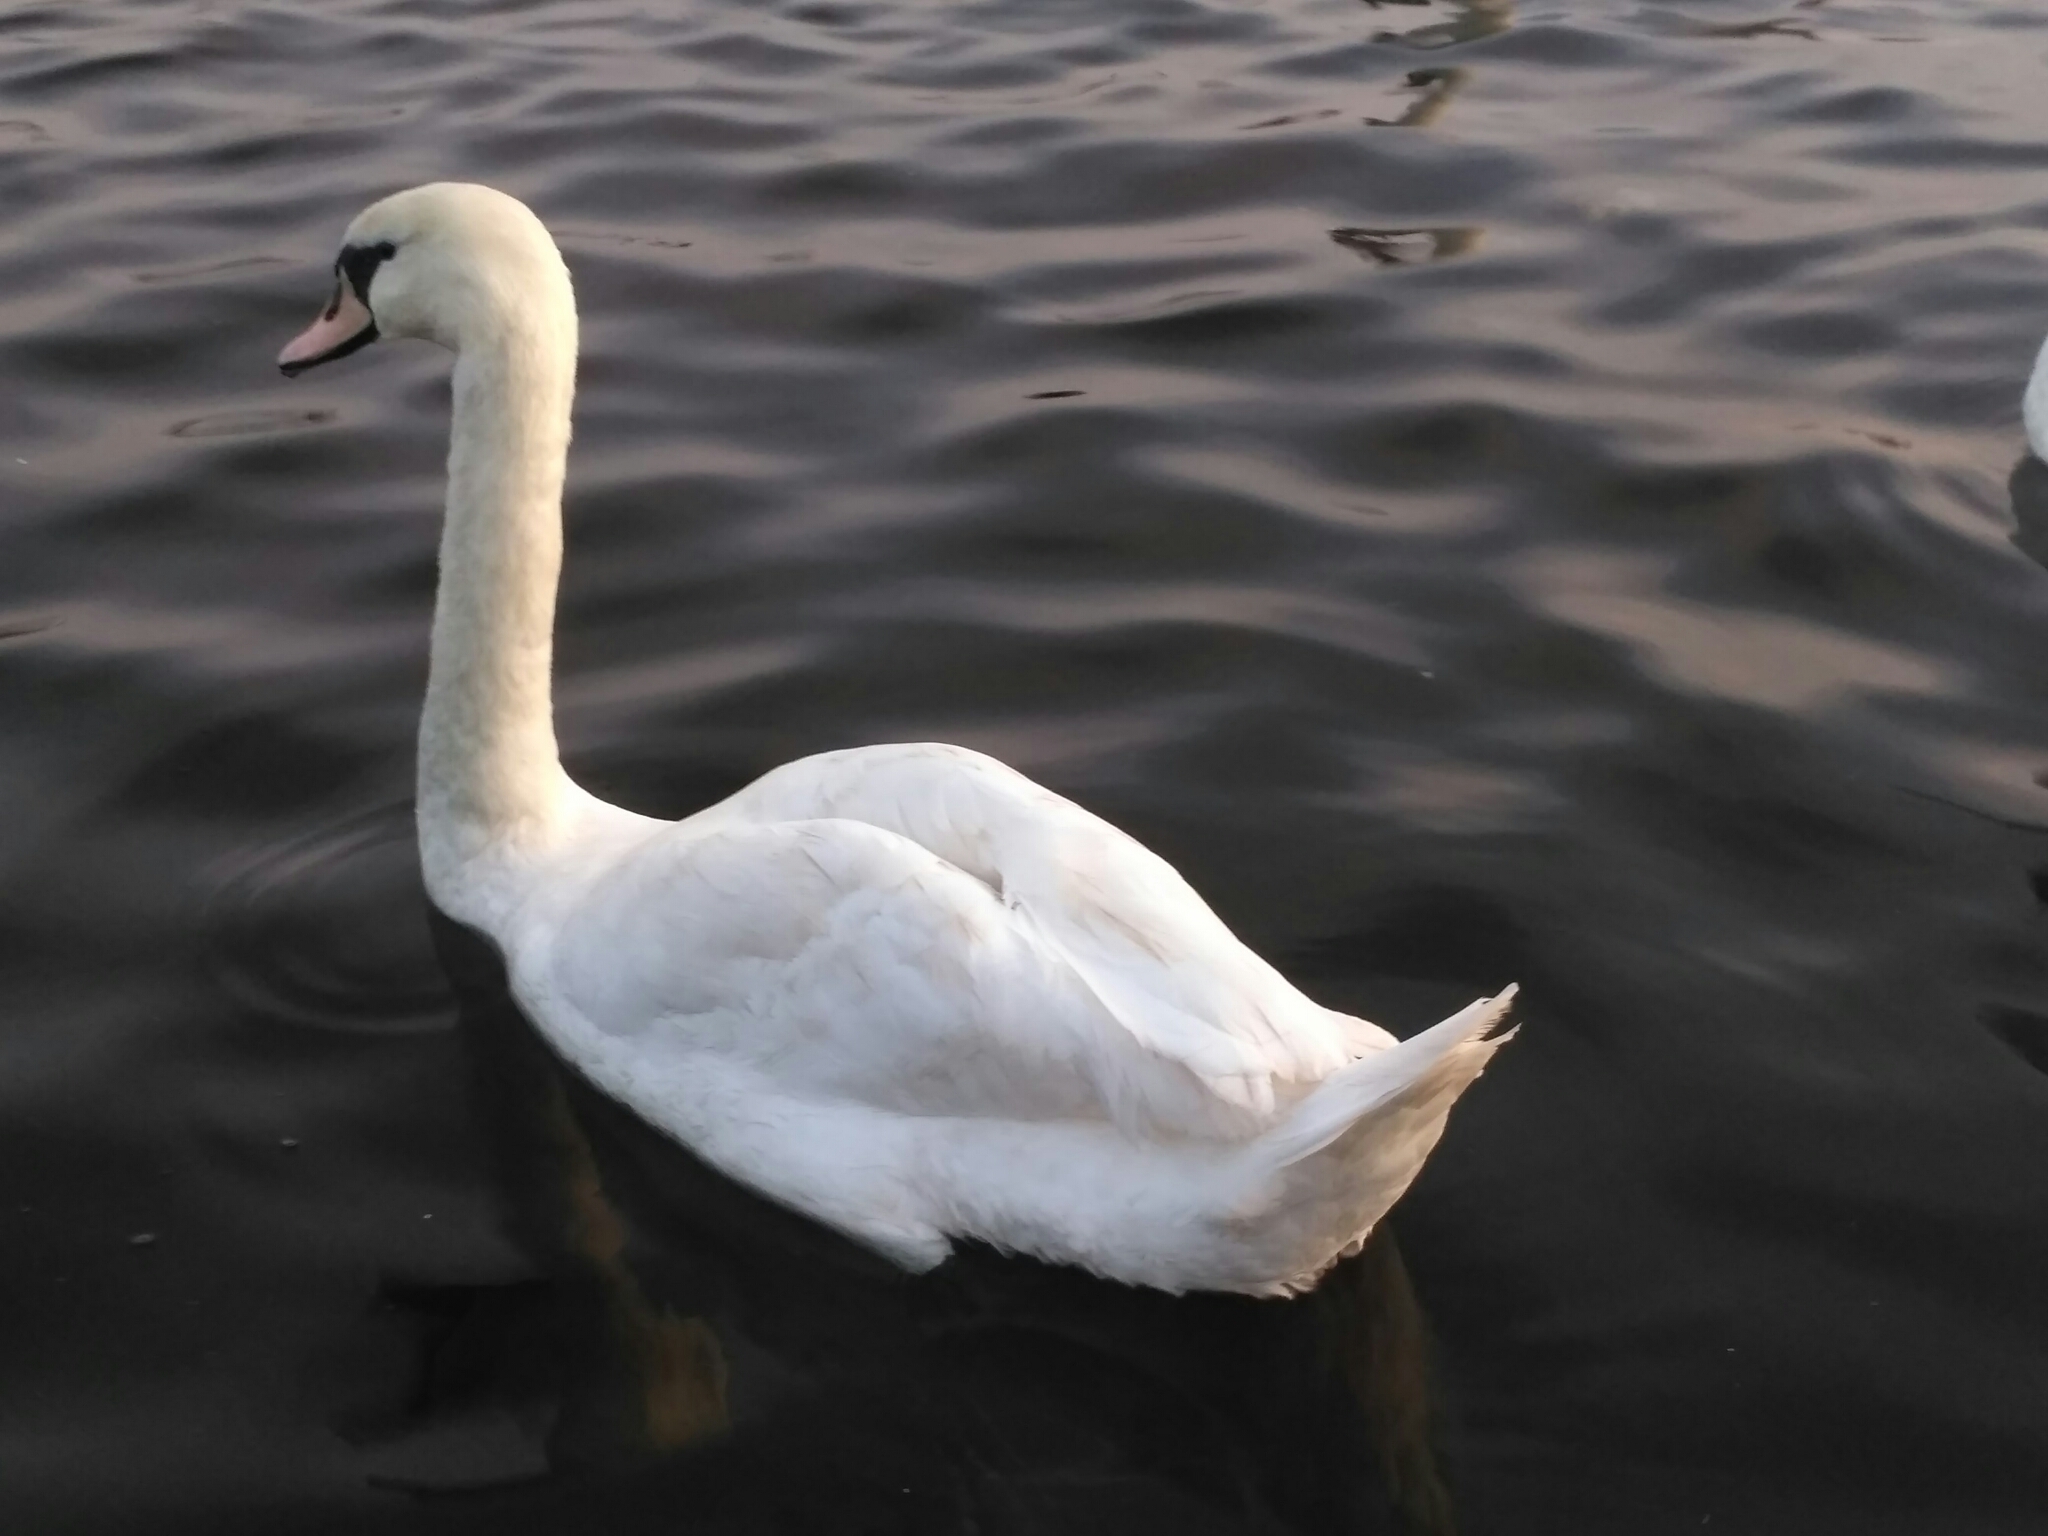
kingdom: Animalia
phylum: Chordata
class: Aves
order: Anseriformes
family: Anatidae
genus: Cygnus
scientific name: Cygnus olor
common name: Mute swan
